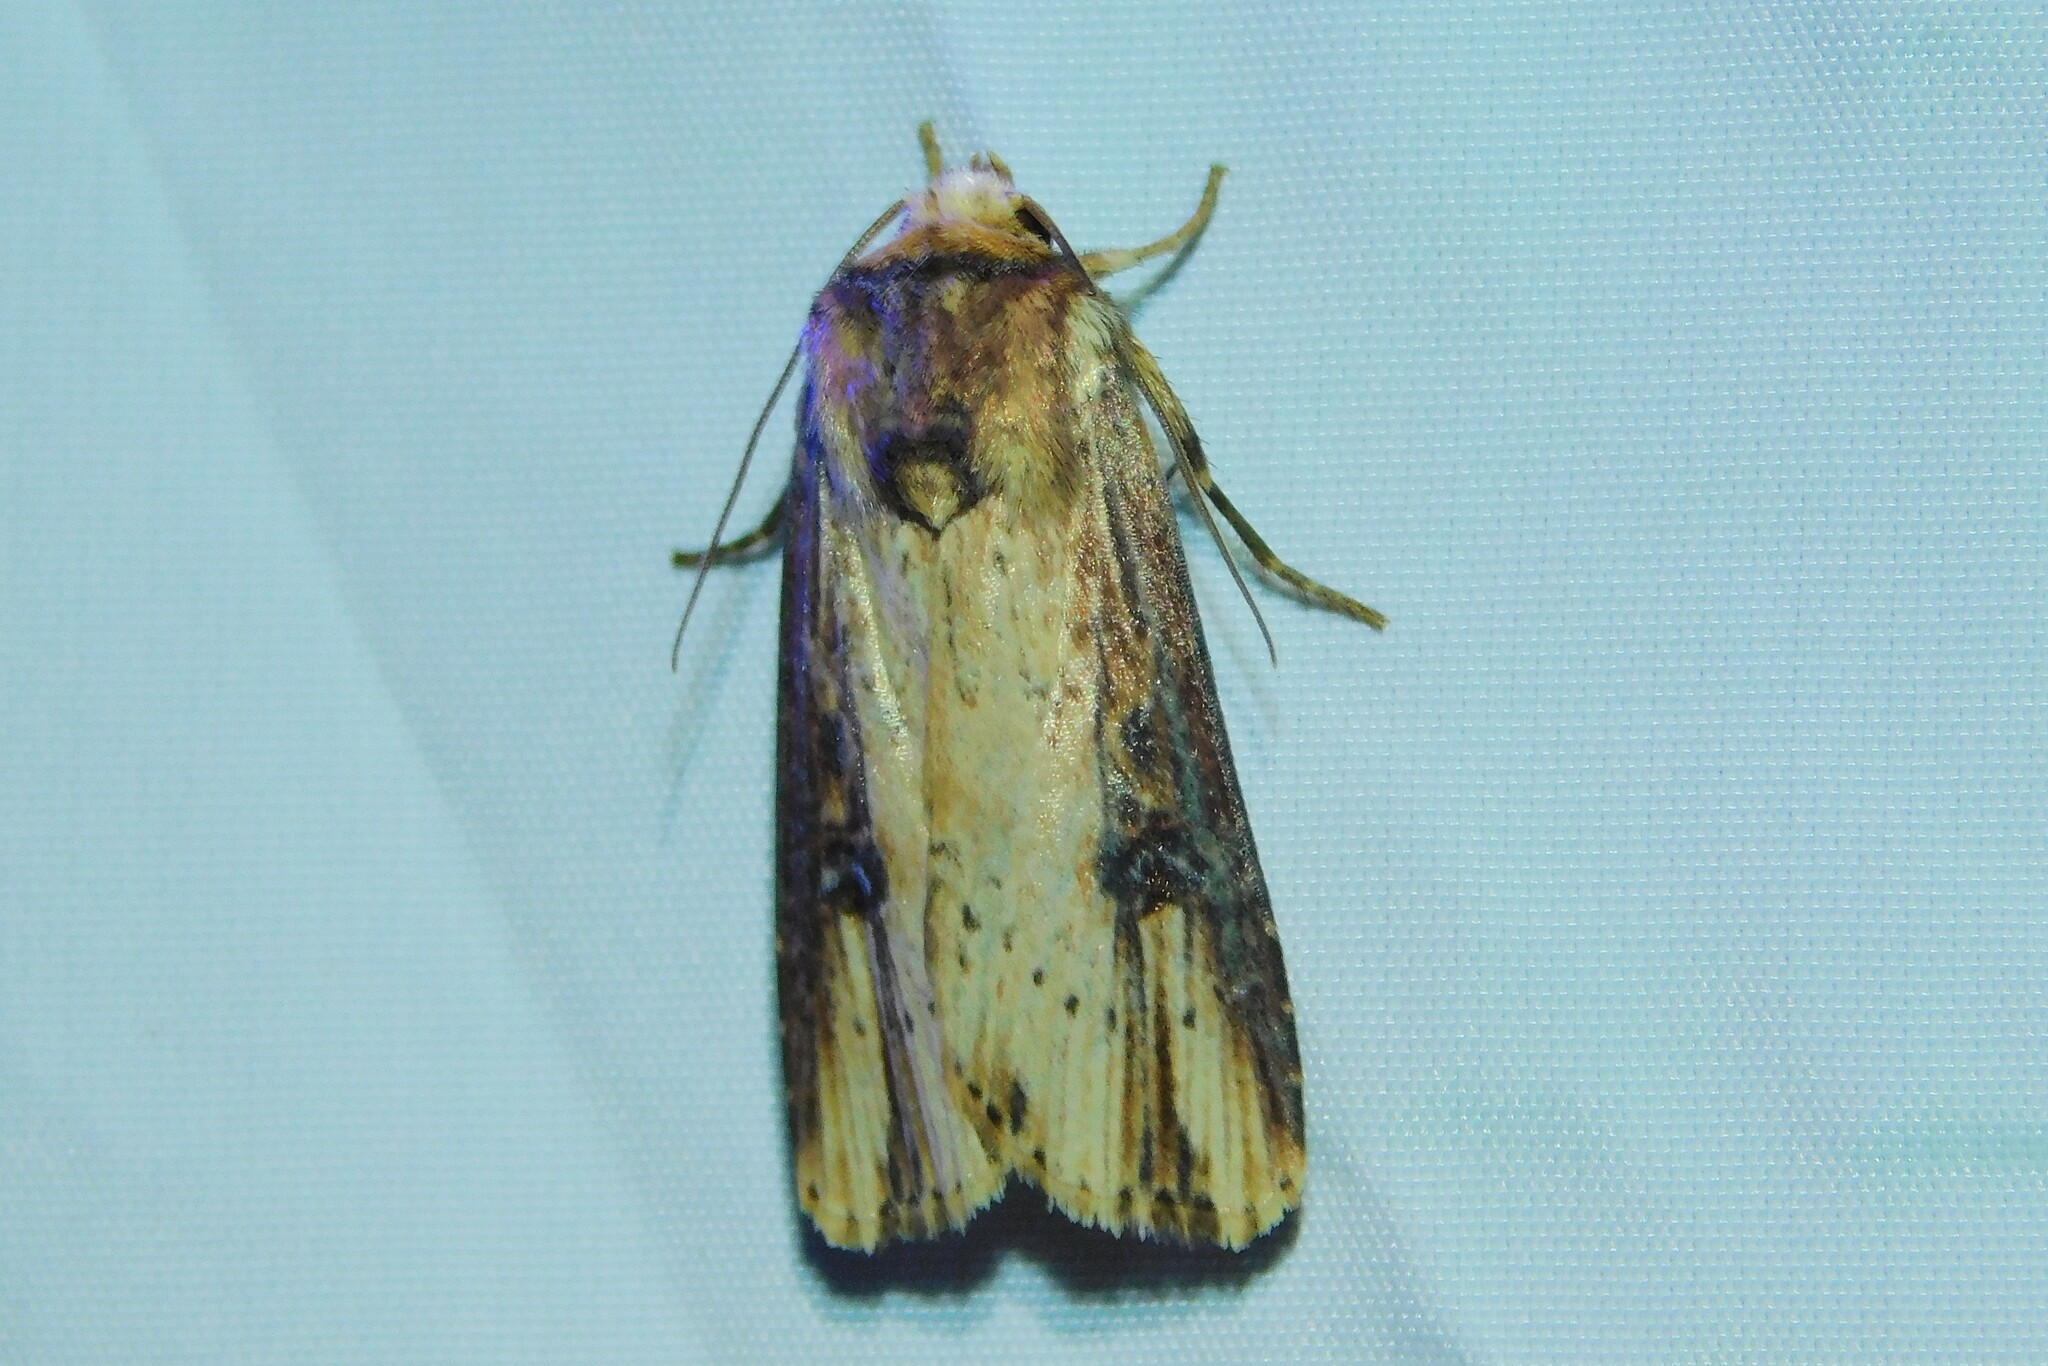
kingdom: Animalia
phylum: Arthropoda
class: Insecta
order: Lepidoptera
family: Noctuidae
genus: Axylia
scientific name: Axylia putris
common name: Flame
